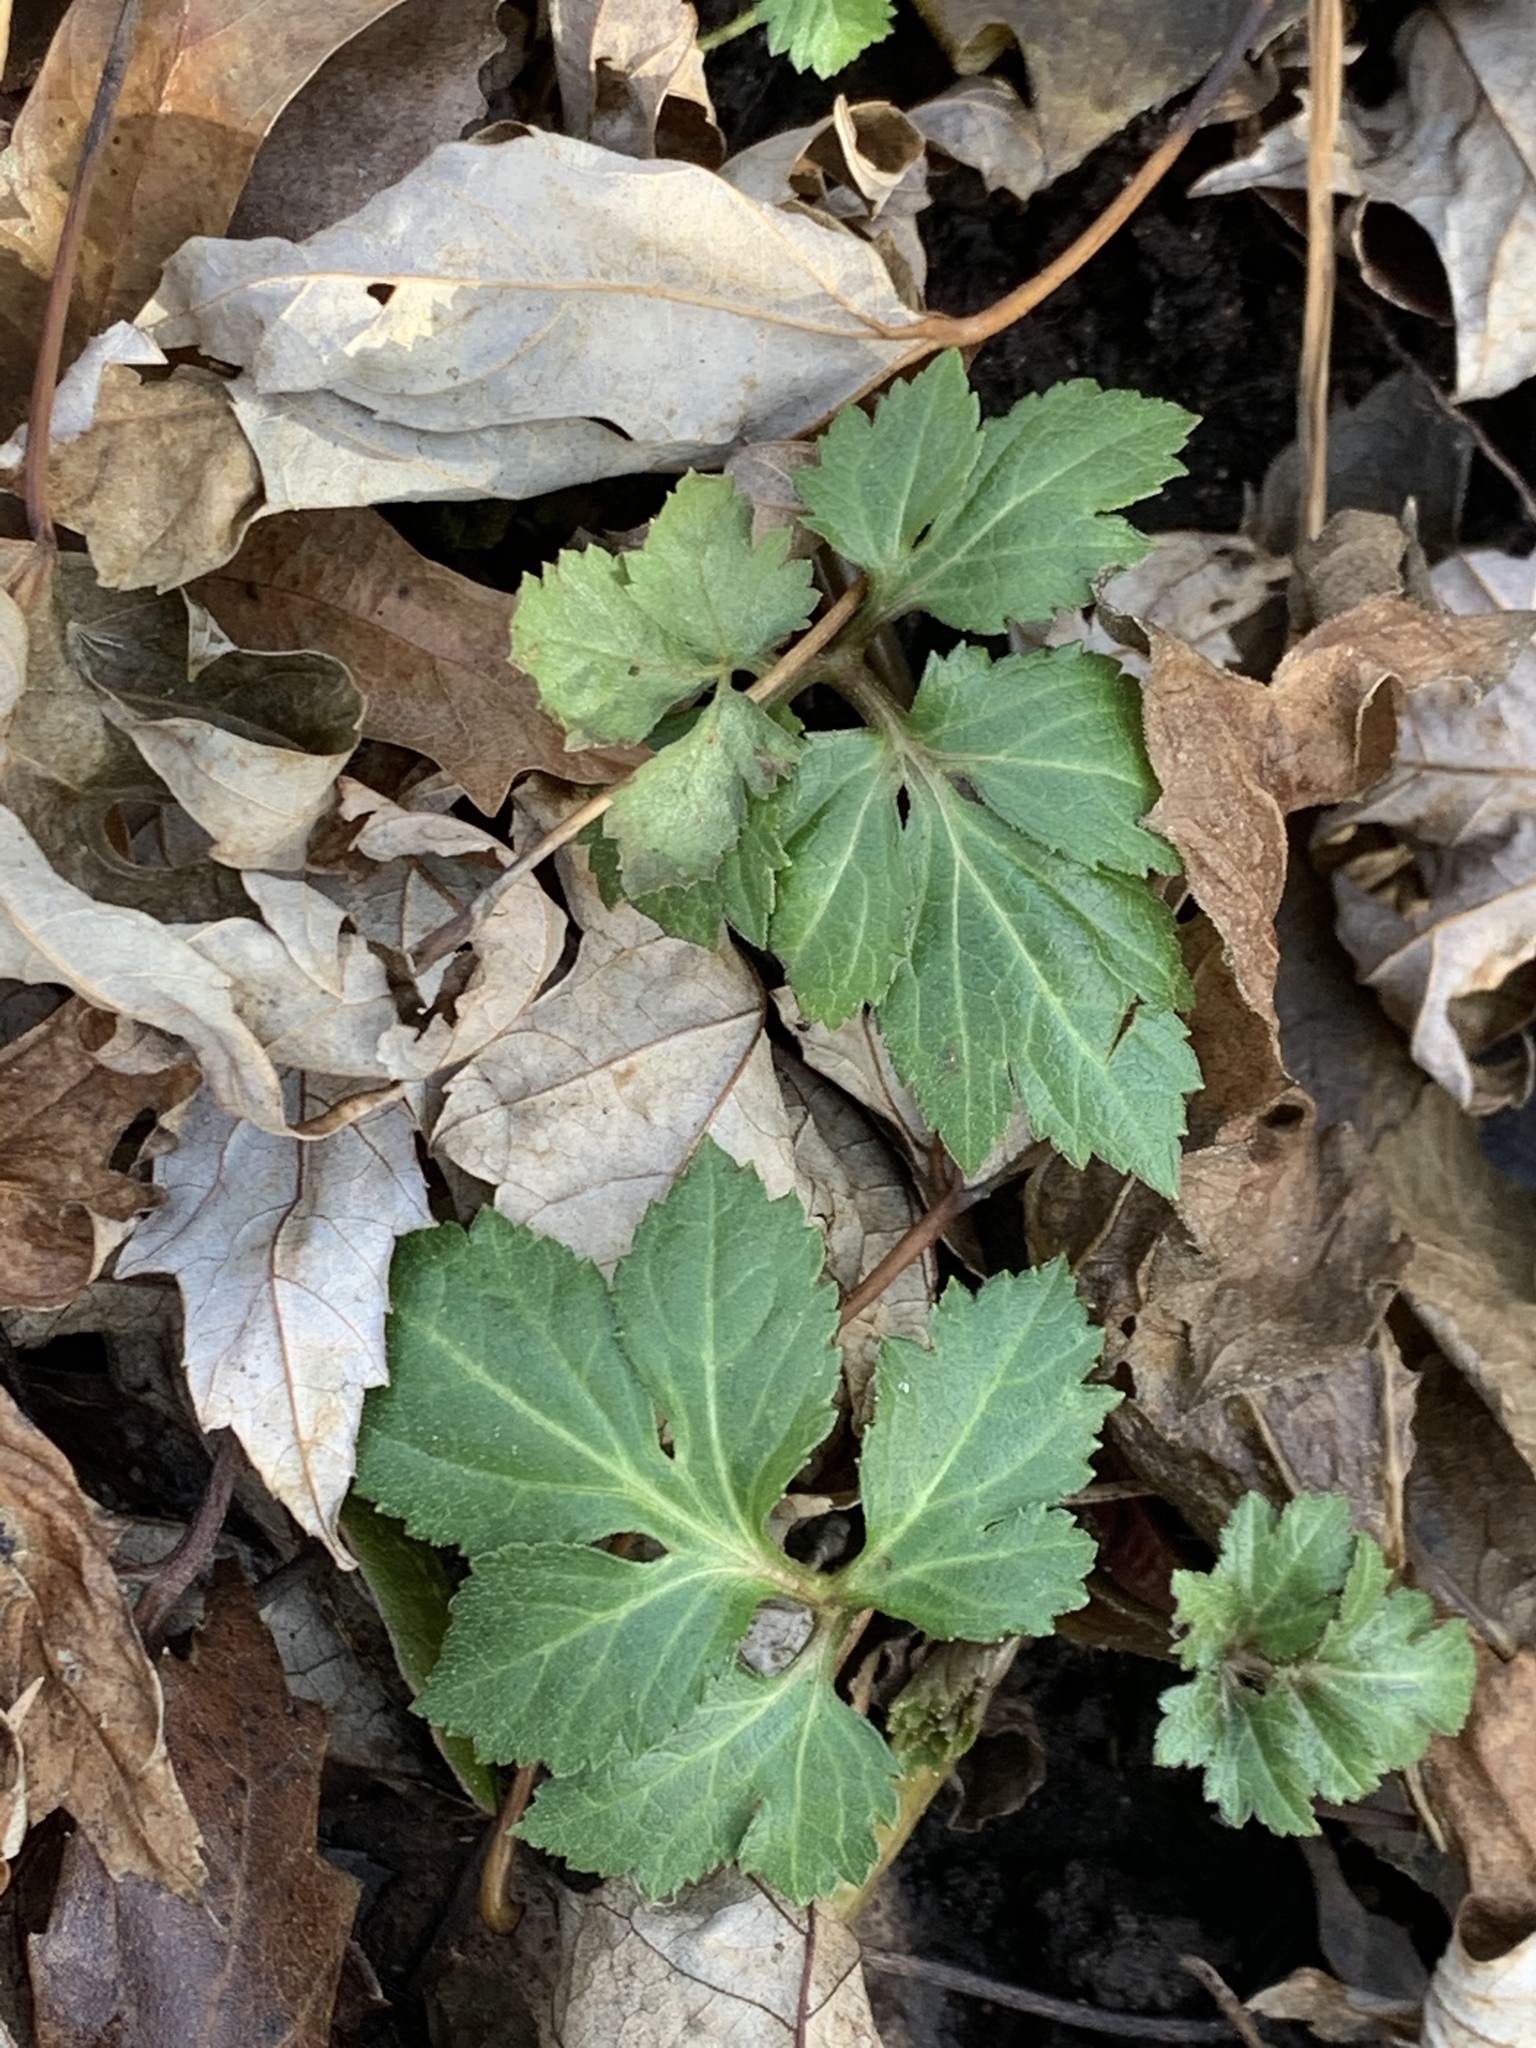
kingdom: Plantae
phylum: Tracheophyta
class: Magnoliopsida
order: Asterales
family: Asteraceae
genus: Rudbeckia
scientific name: Rudbeckia laciniata
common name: Coneflower
